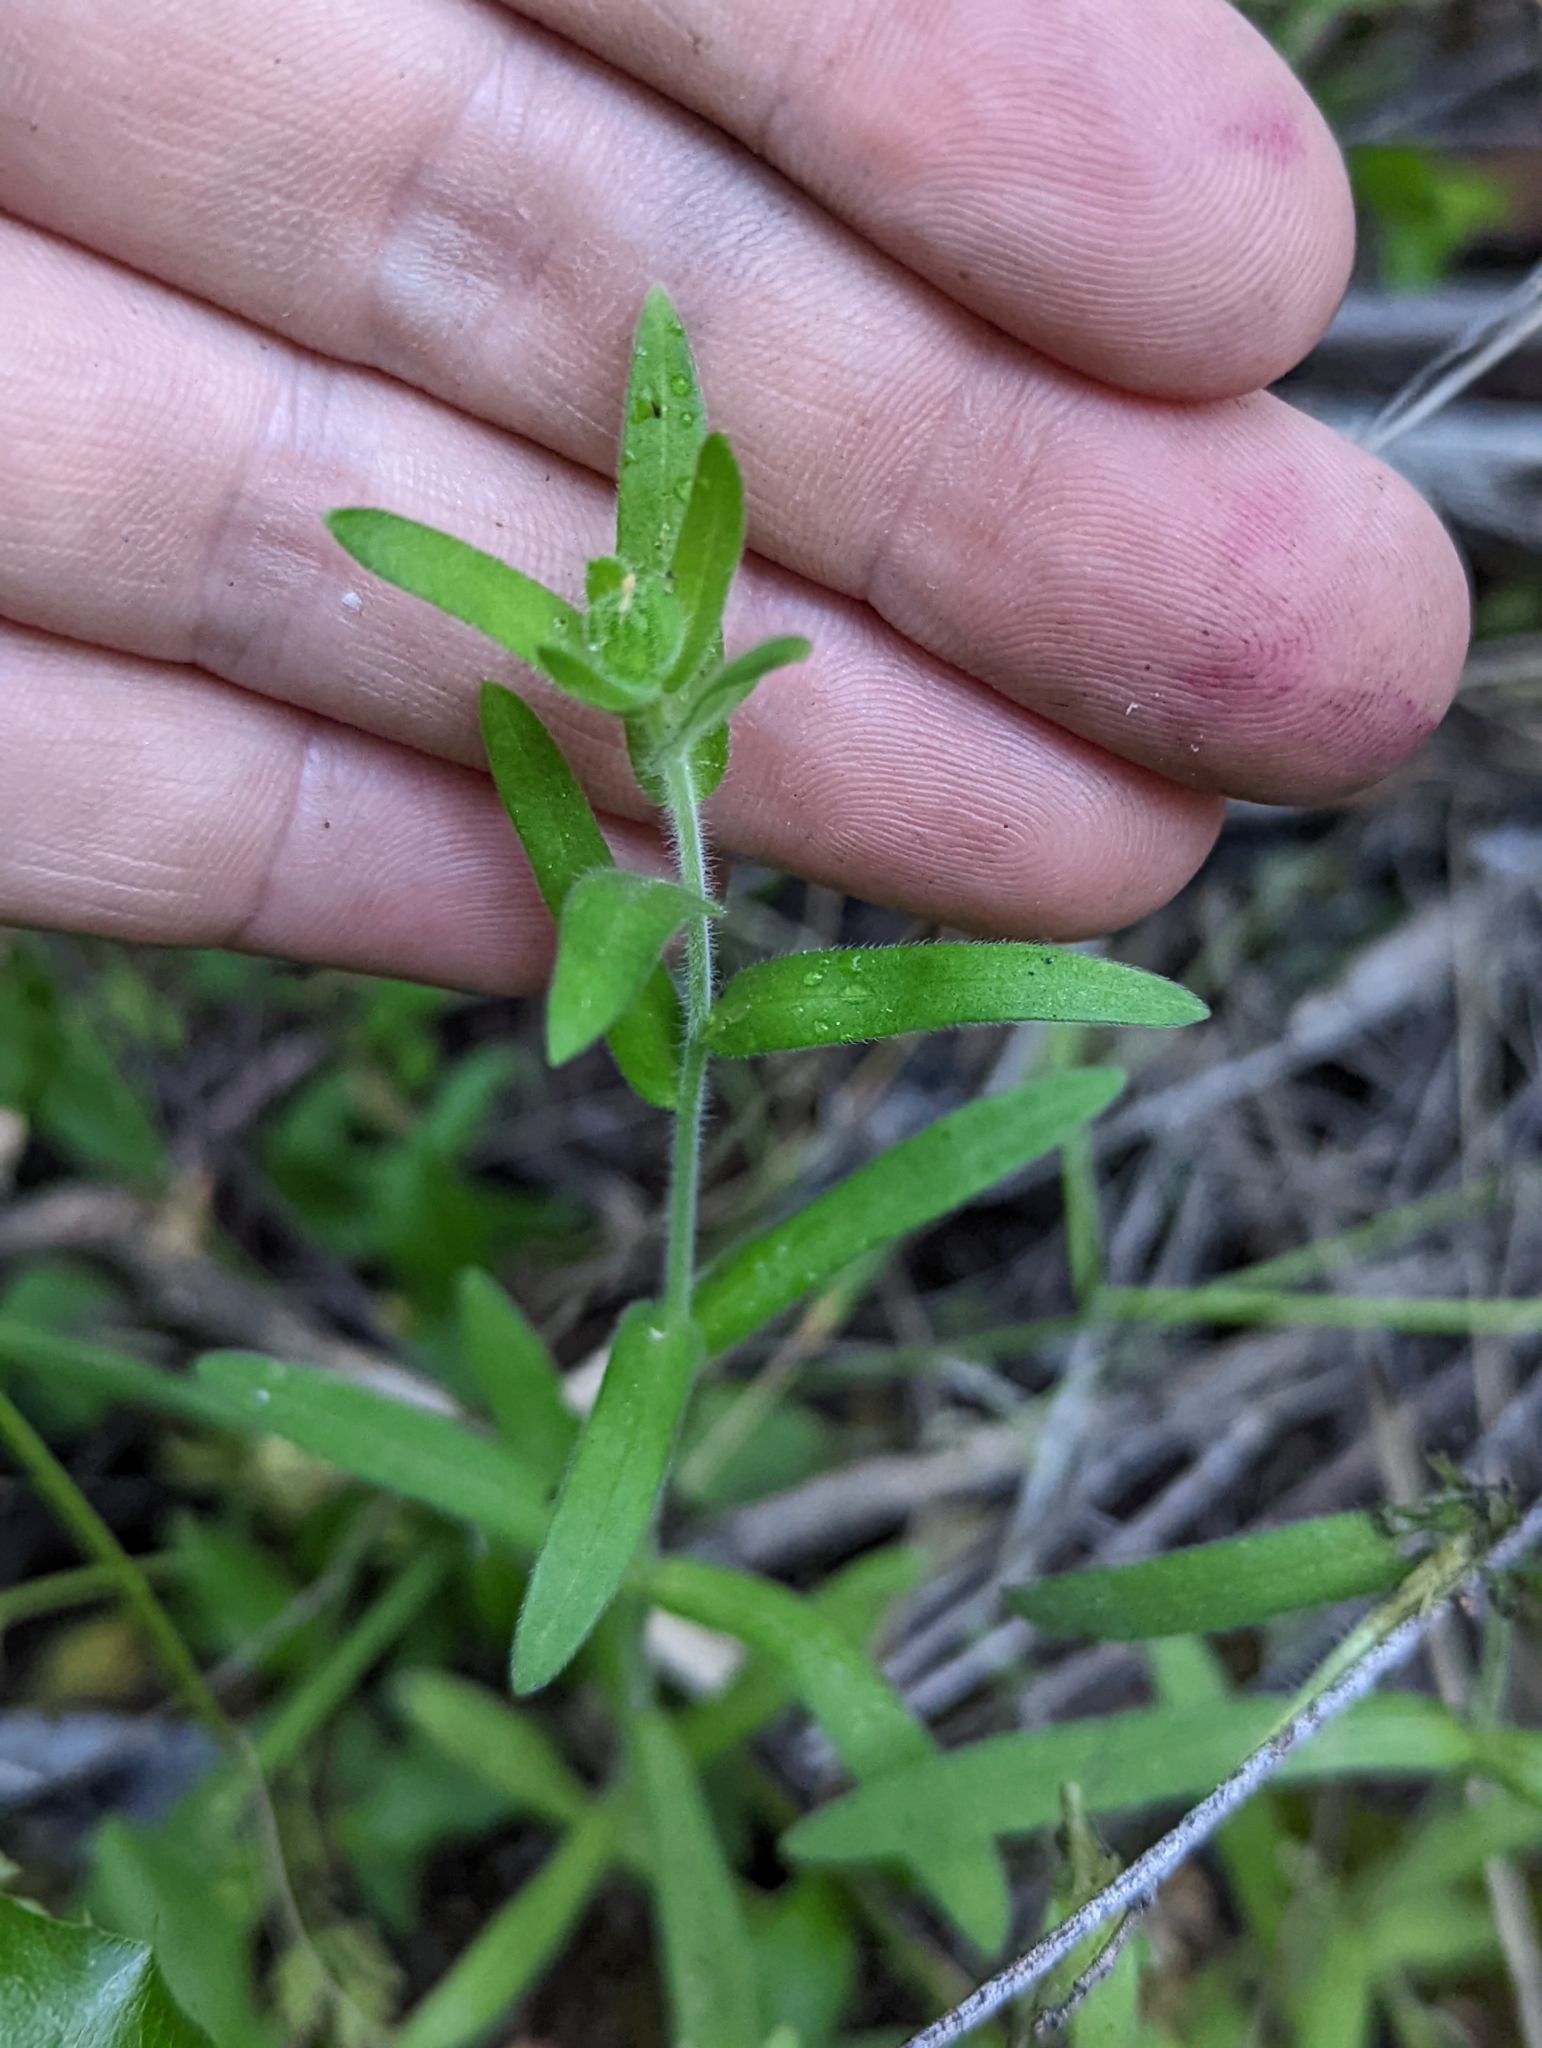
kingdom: Plantae
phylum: Tracheophyta
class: Magnoliopsida
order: Asterales
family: Asteraceae
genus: Madia
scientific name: Madia gracilis
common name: Grassy tarweed
